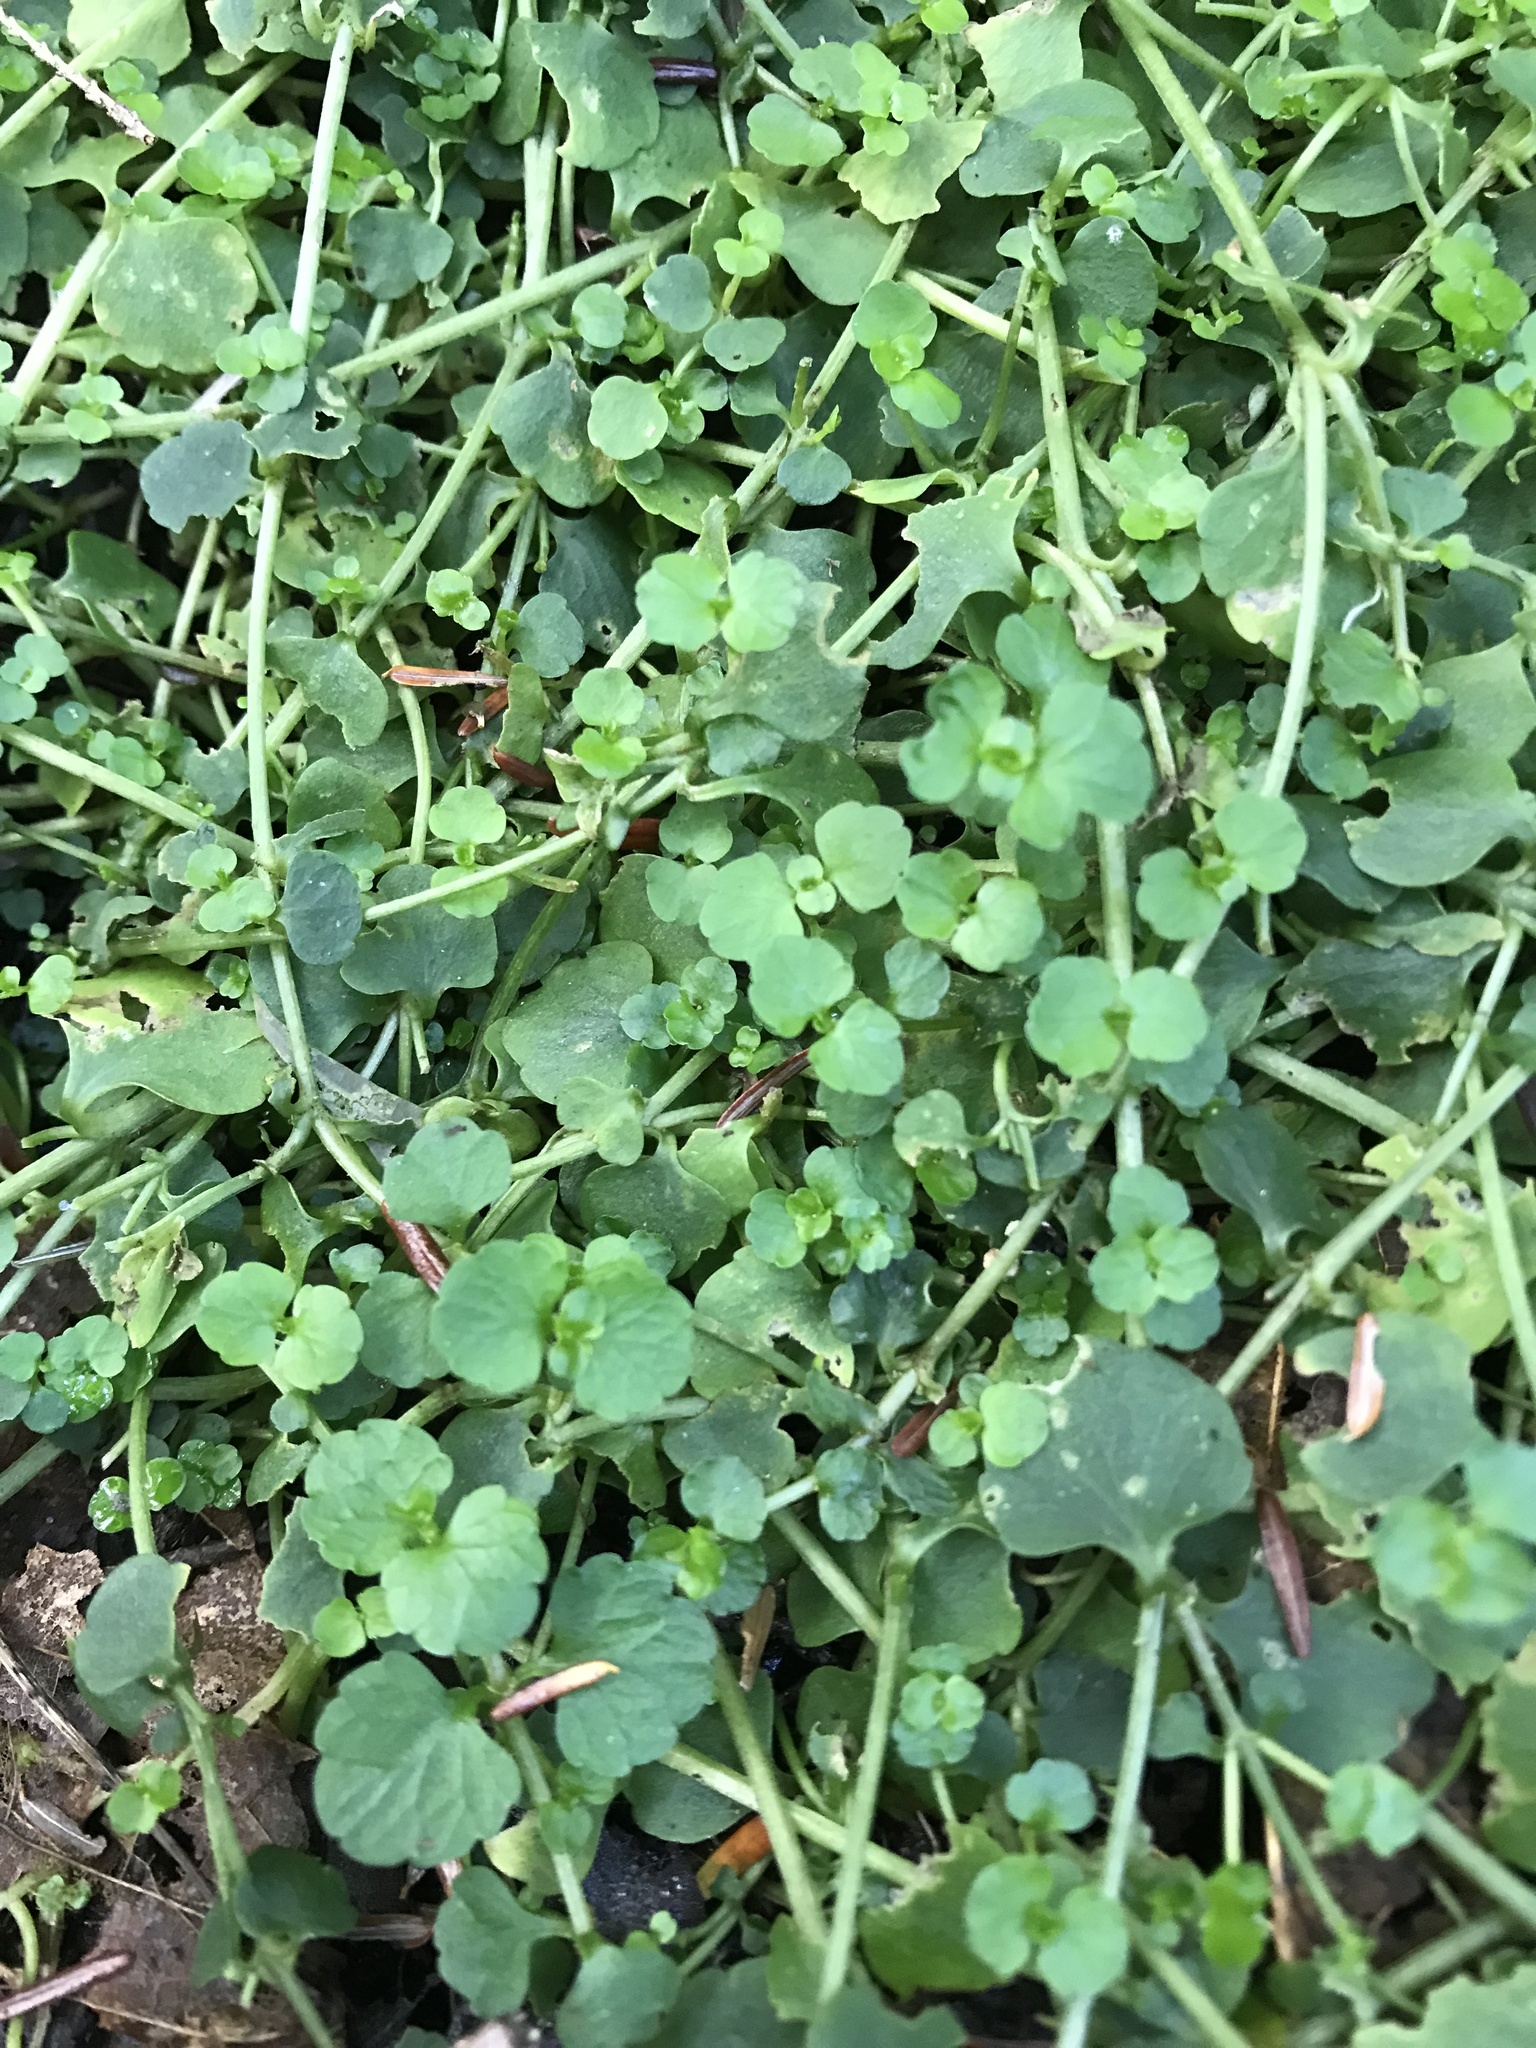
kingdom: Plantae
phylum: Tracheophyta
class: Magnoliopsida
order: Saxifragales
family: Saxifragaceae
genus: Chrysosplenium
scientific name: Chrysosplenium americanum
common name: American golden-saxifrage
